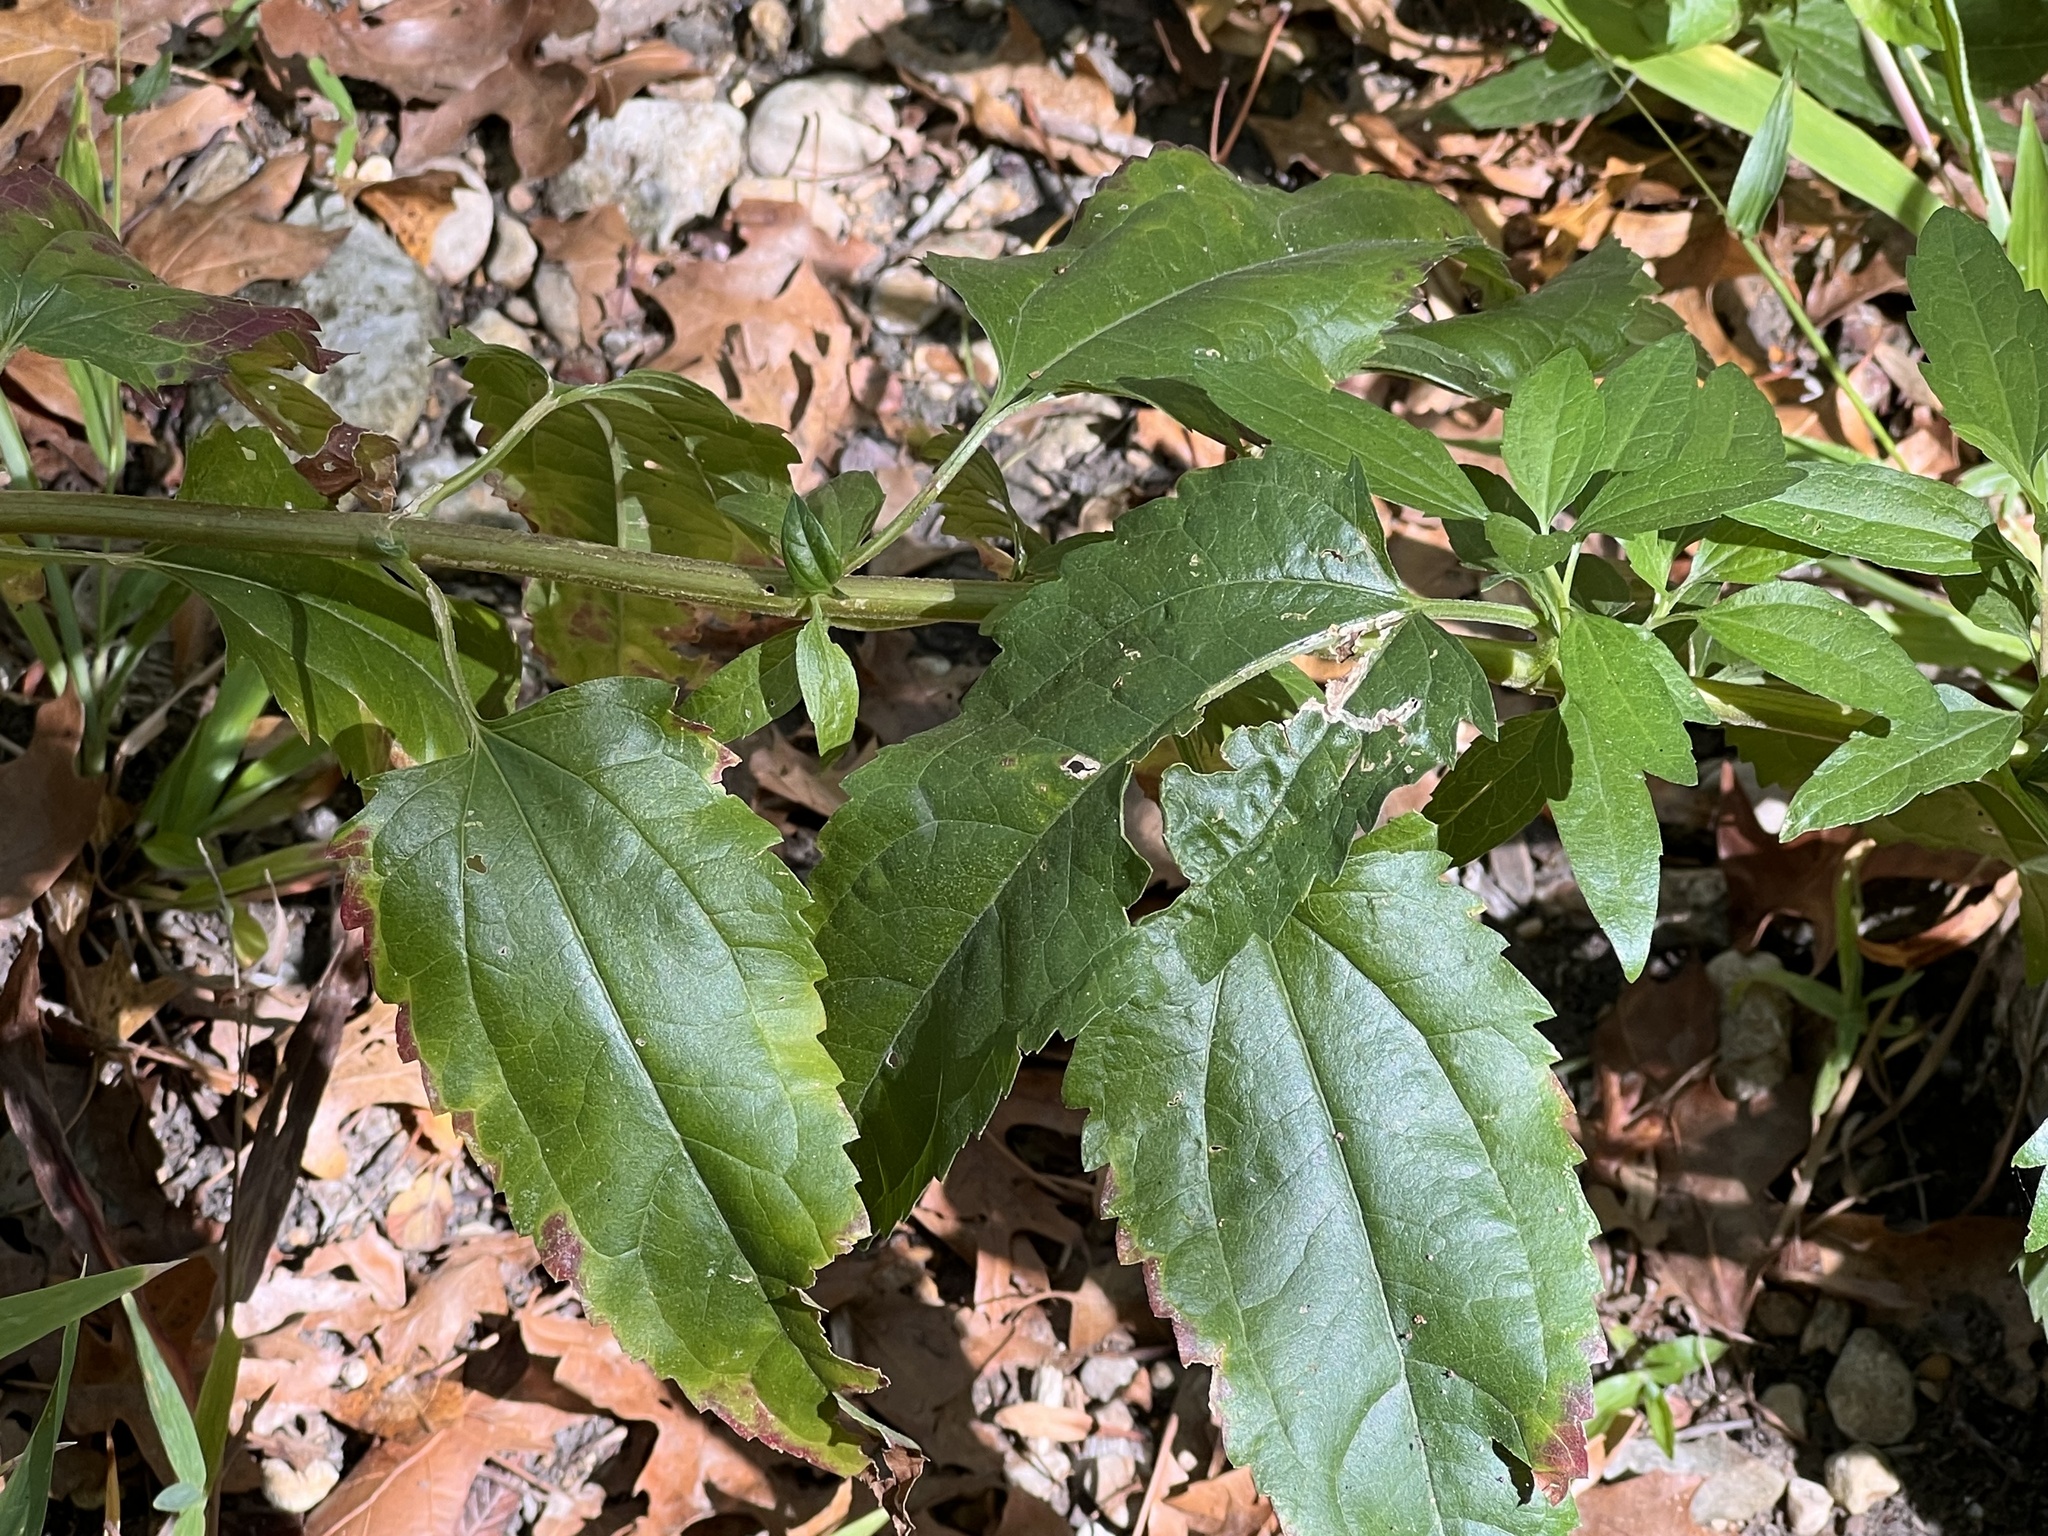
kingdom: Plantae
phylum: Tracheophyta
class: Magnoliopsida
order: Asterales
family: Asteraceae
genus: Eupatorium
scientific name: Eupatorium serotinum
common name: Late boneset
